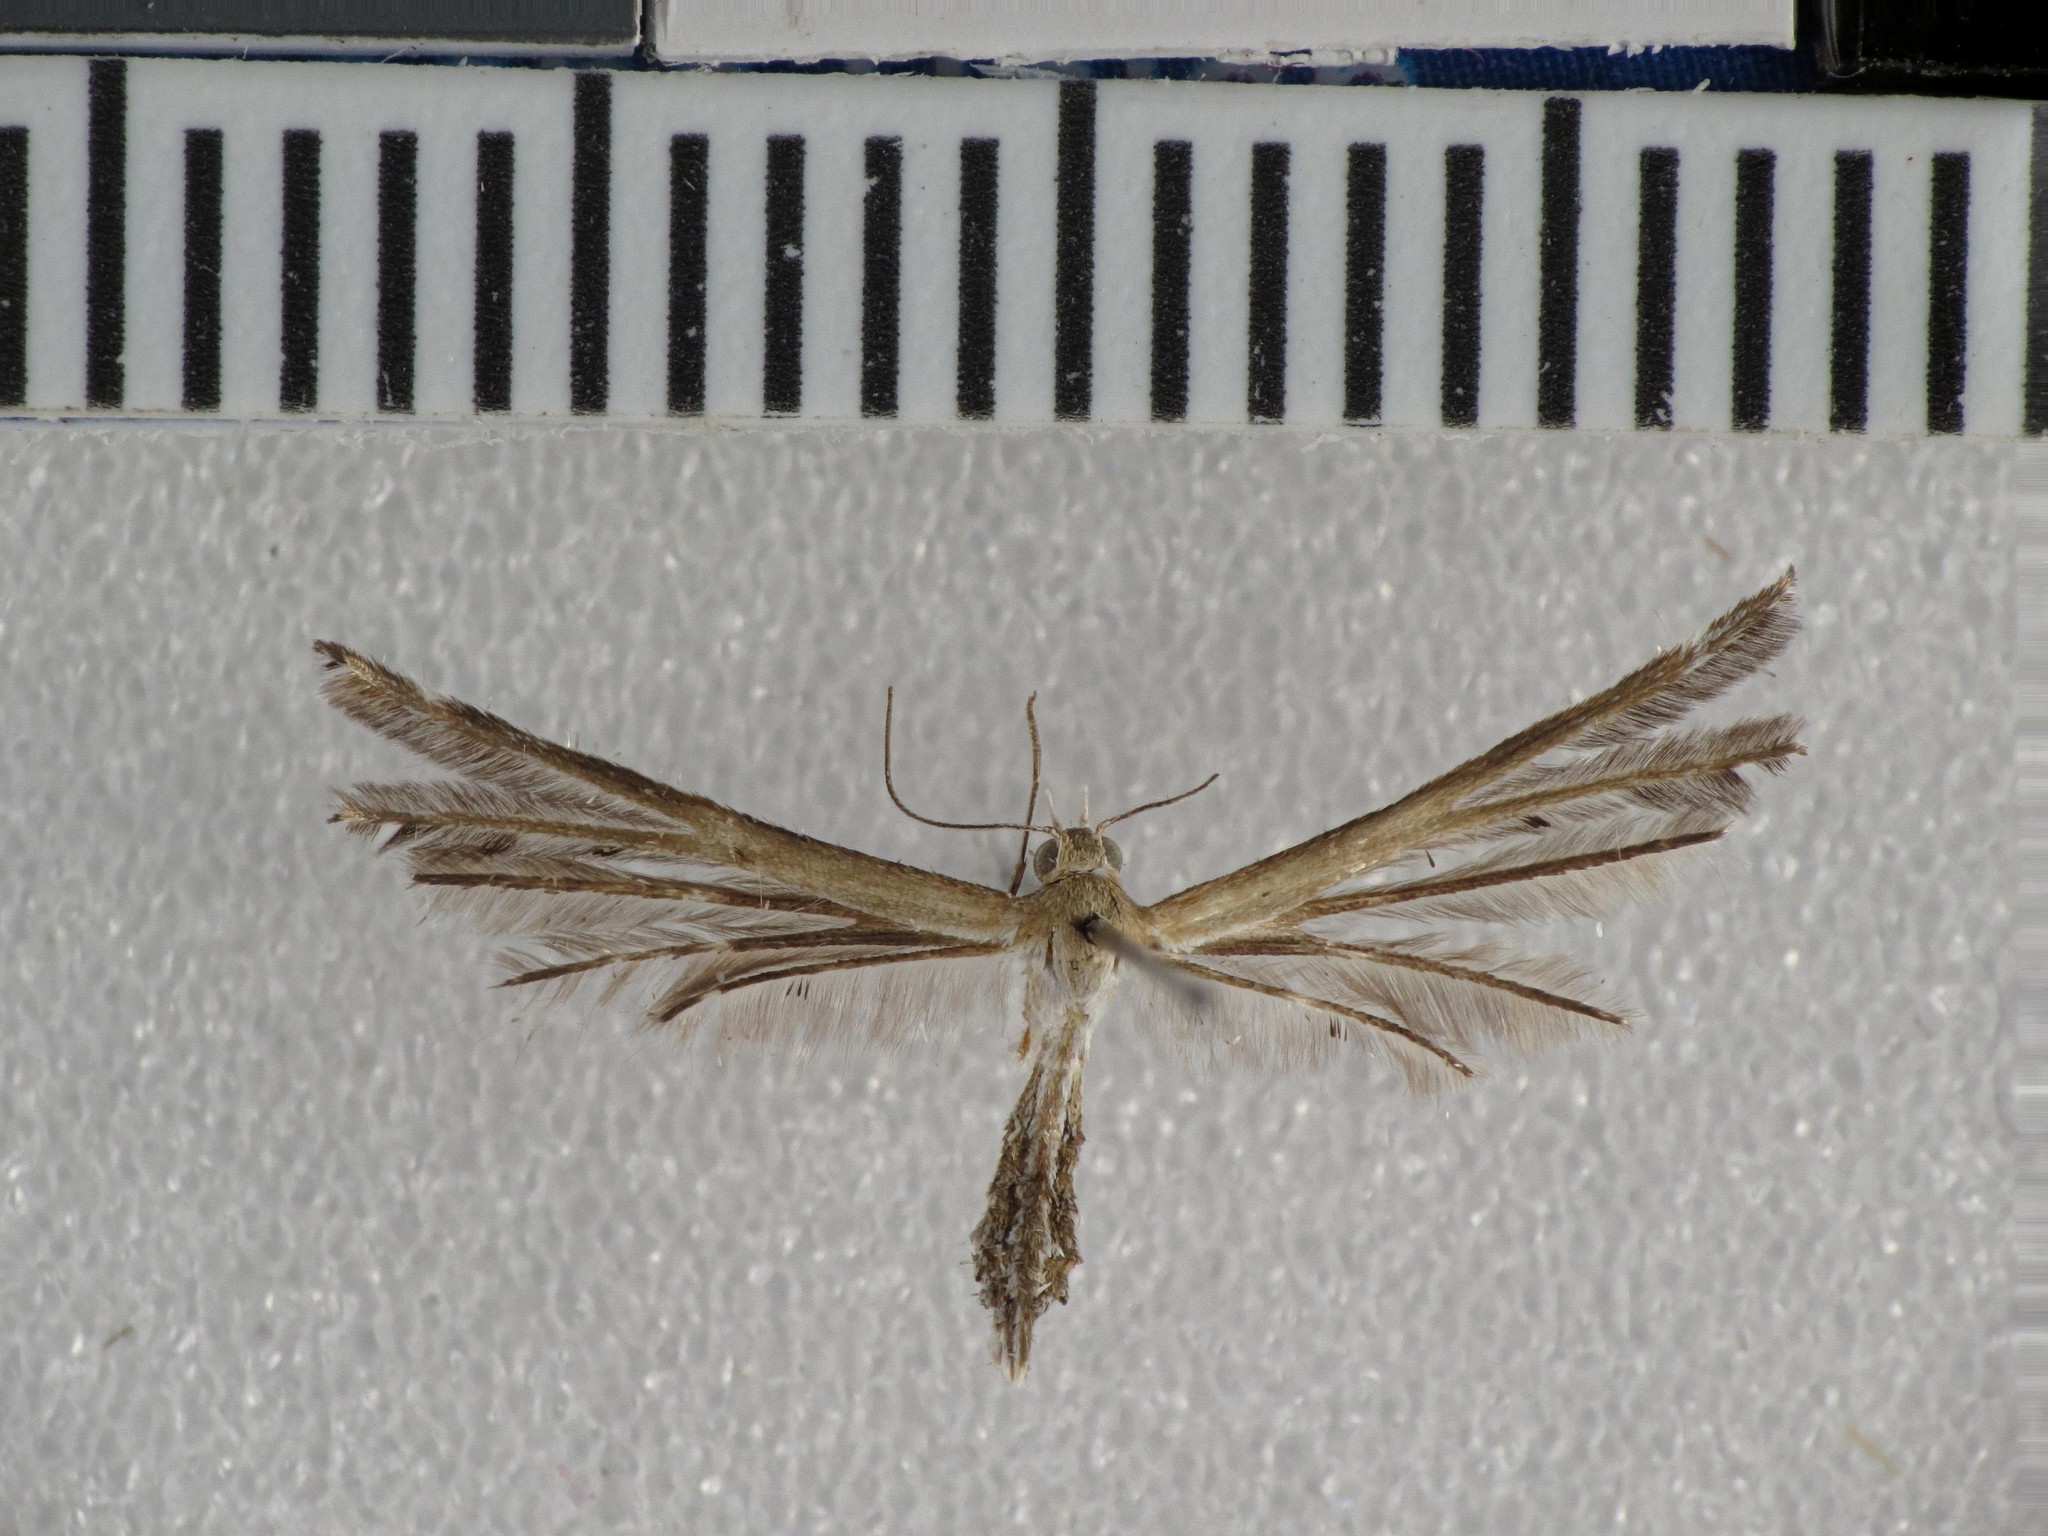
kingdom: Animalia
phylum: Arthropoda
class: Insecta
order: Lepidoptera
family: Pterophoridae
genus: Stangeia
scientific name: Stangeia xerodes
